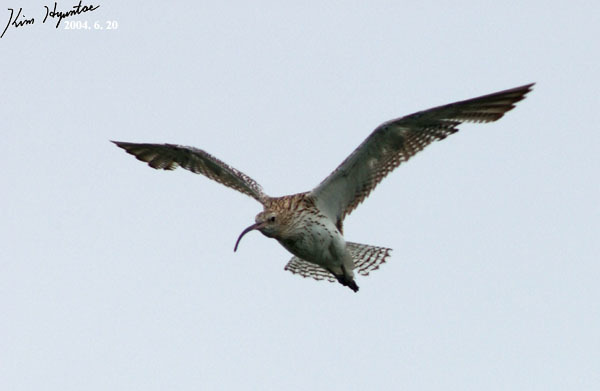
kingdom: Animalia
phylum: Chordata
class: Aves
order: Charadriiformes
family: Scolopacidae
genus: Numenius
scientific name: Numenius arquata
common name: Eurasian curlew
